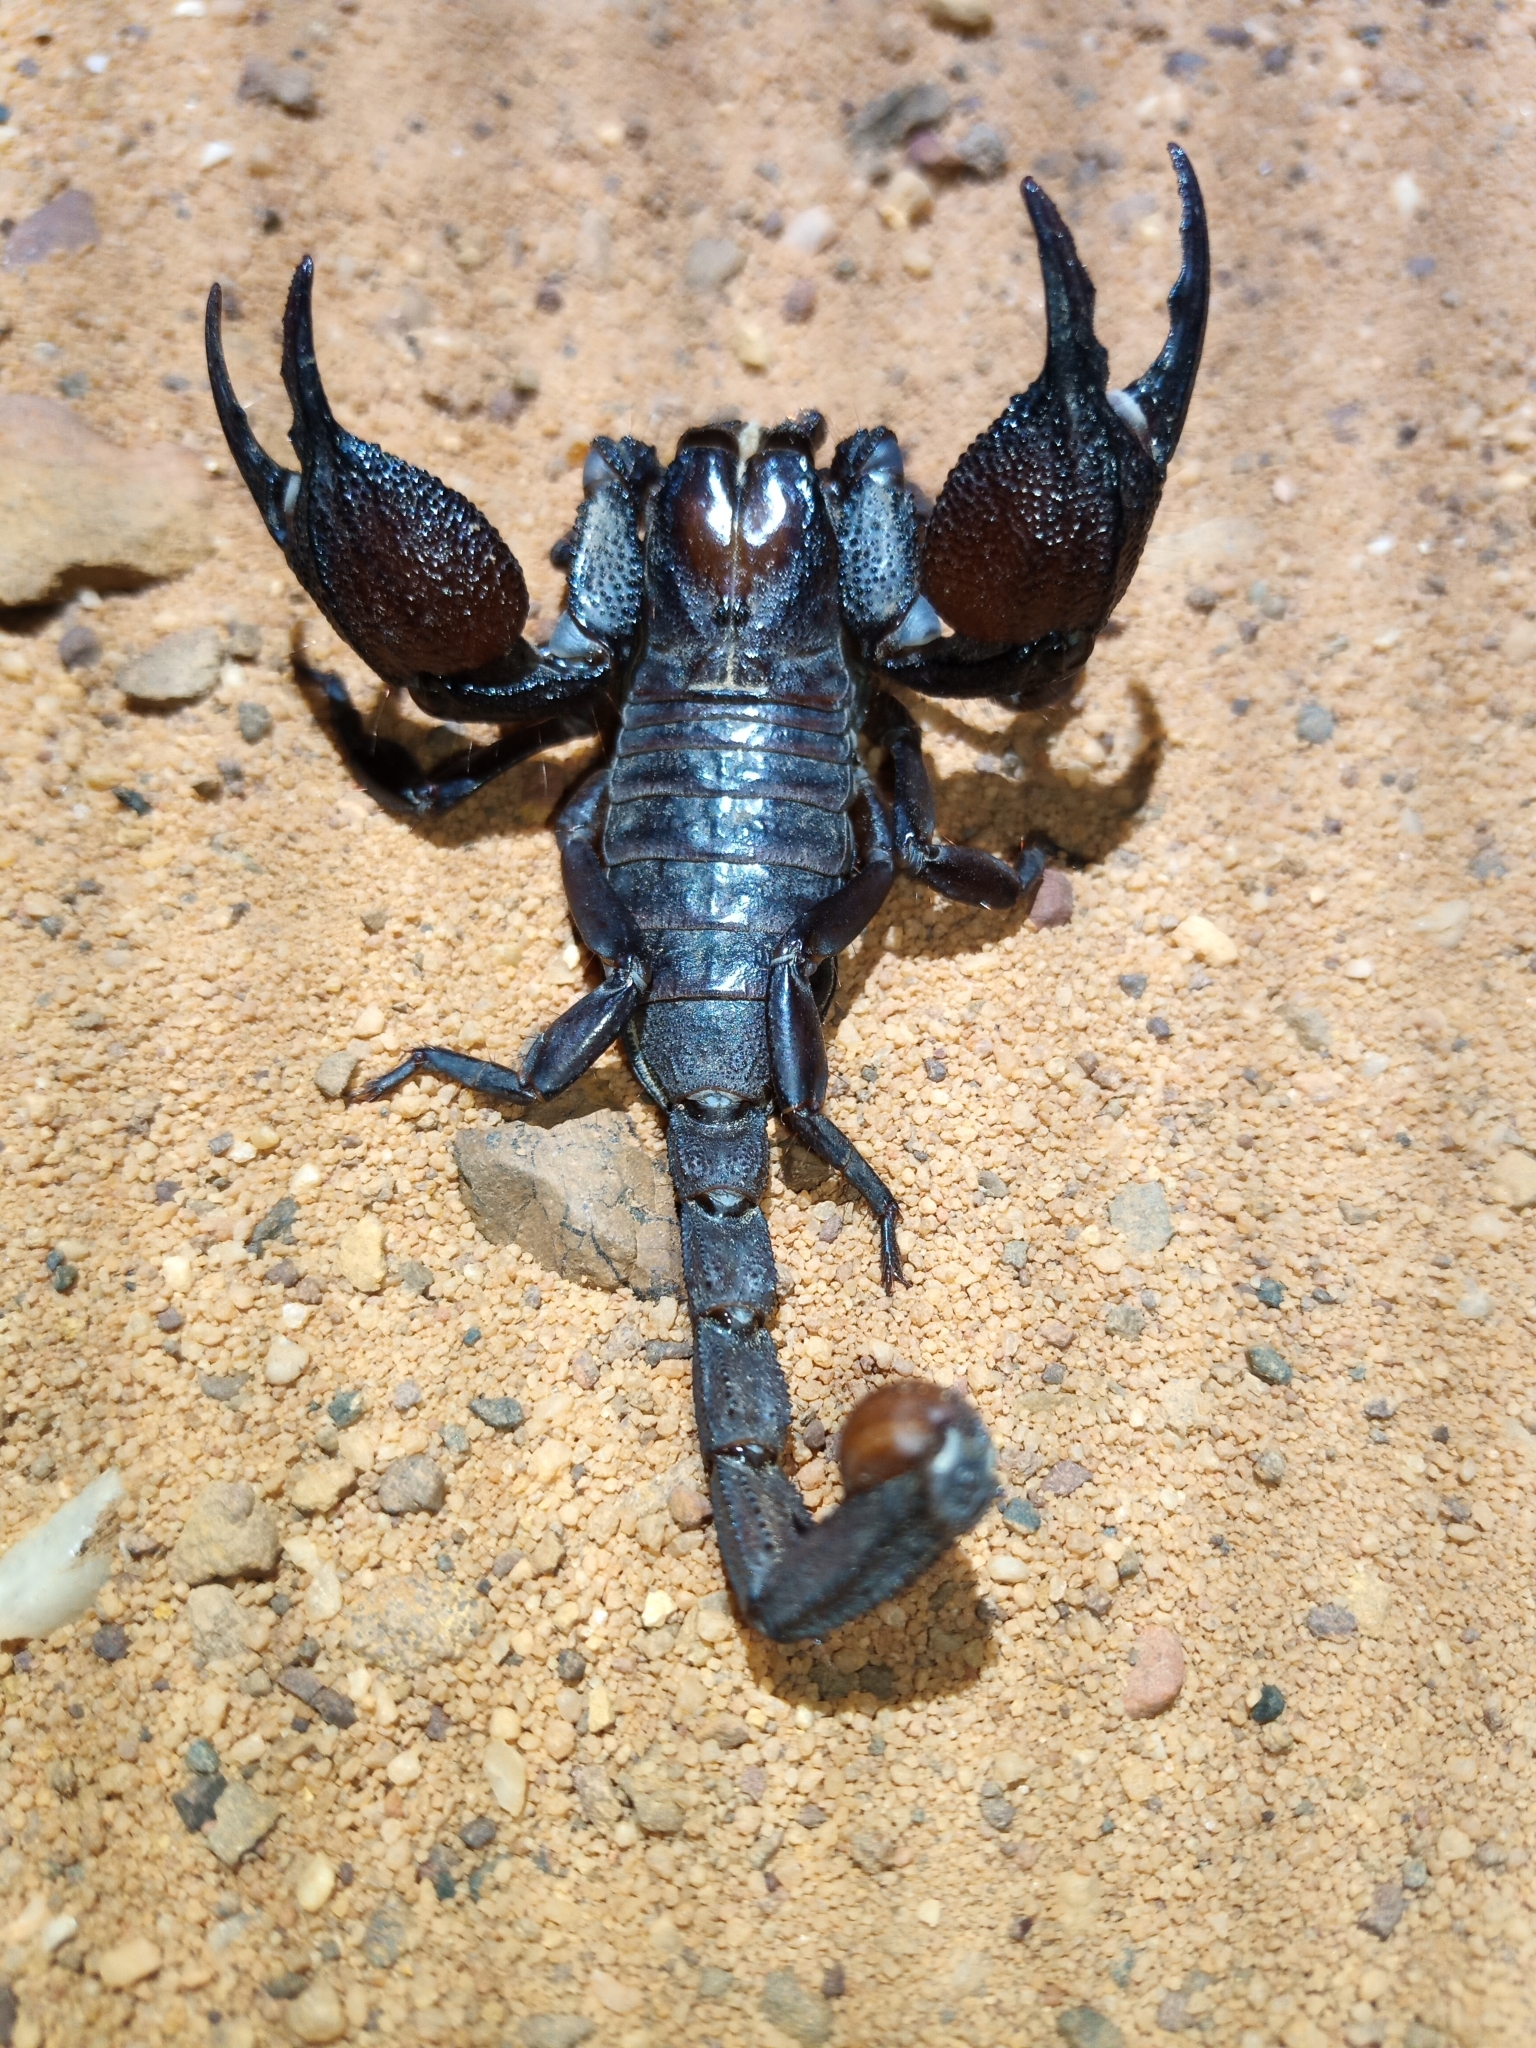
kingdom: Animalia
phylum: Arthropoda
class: Arachnida
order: Scorpiones
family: Scorpionidae
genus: Opistophthalmus
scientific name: Opistophthalmus pattisoni
